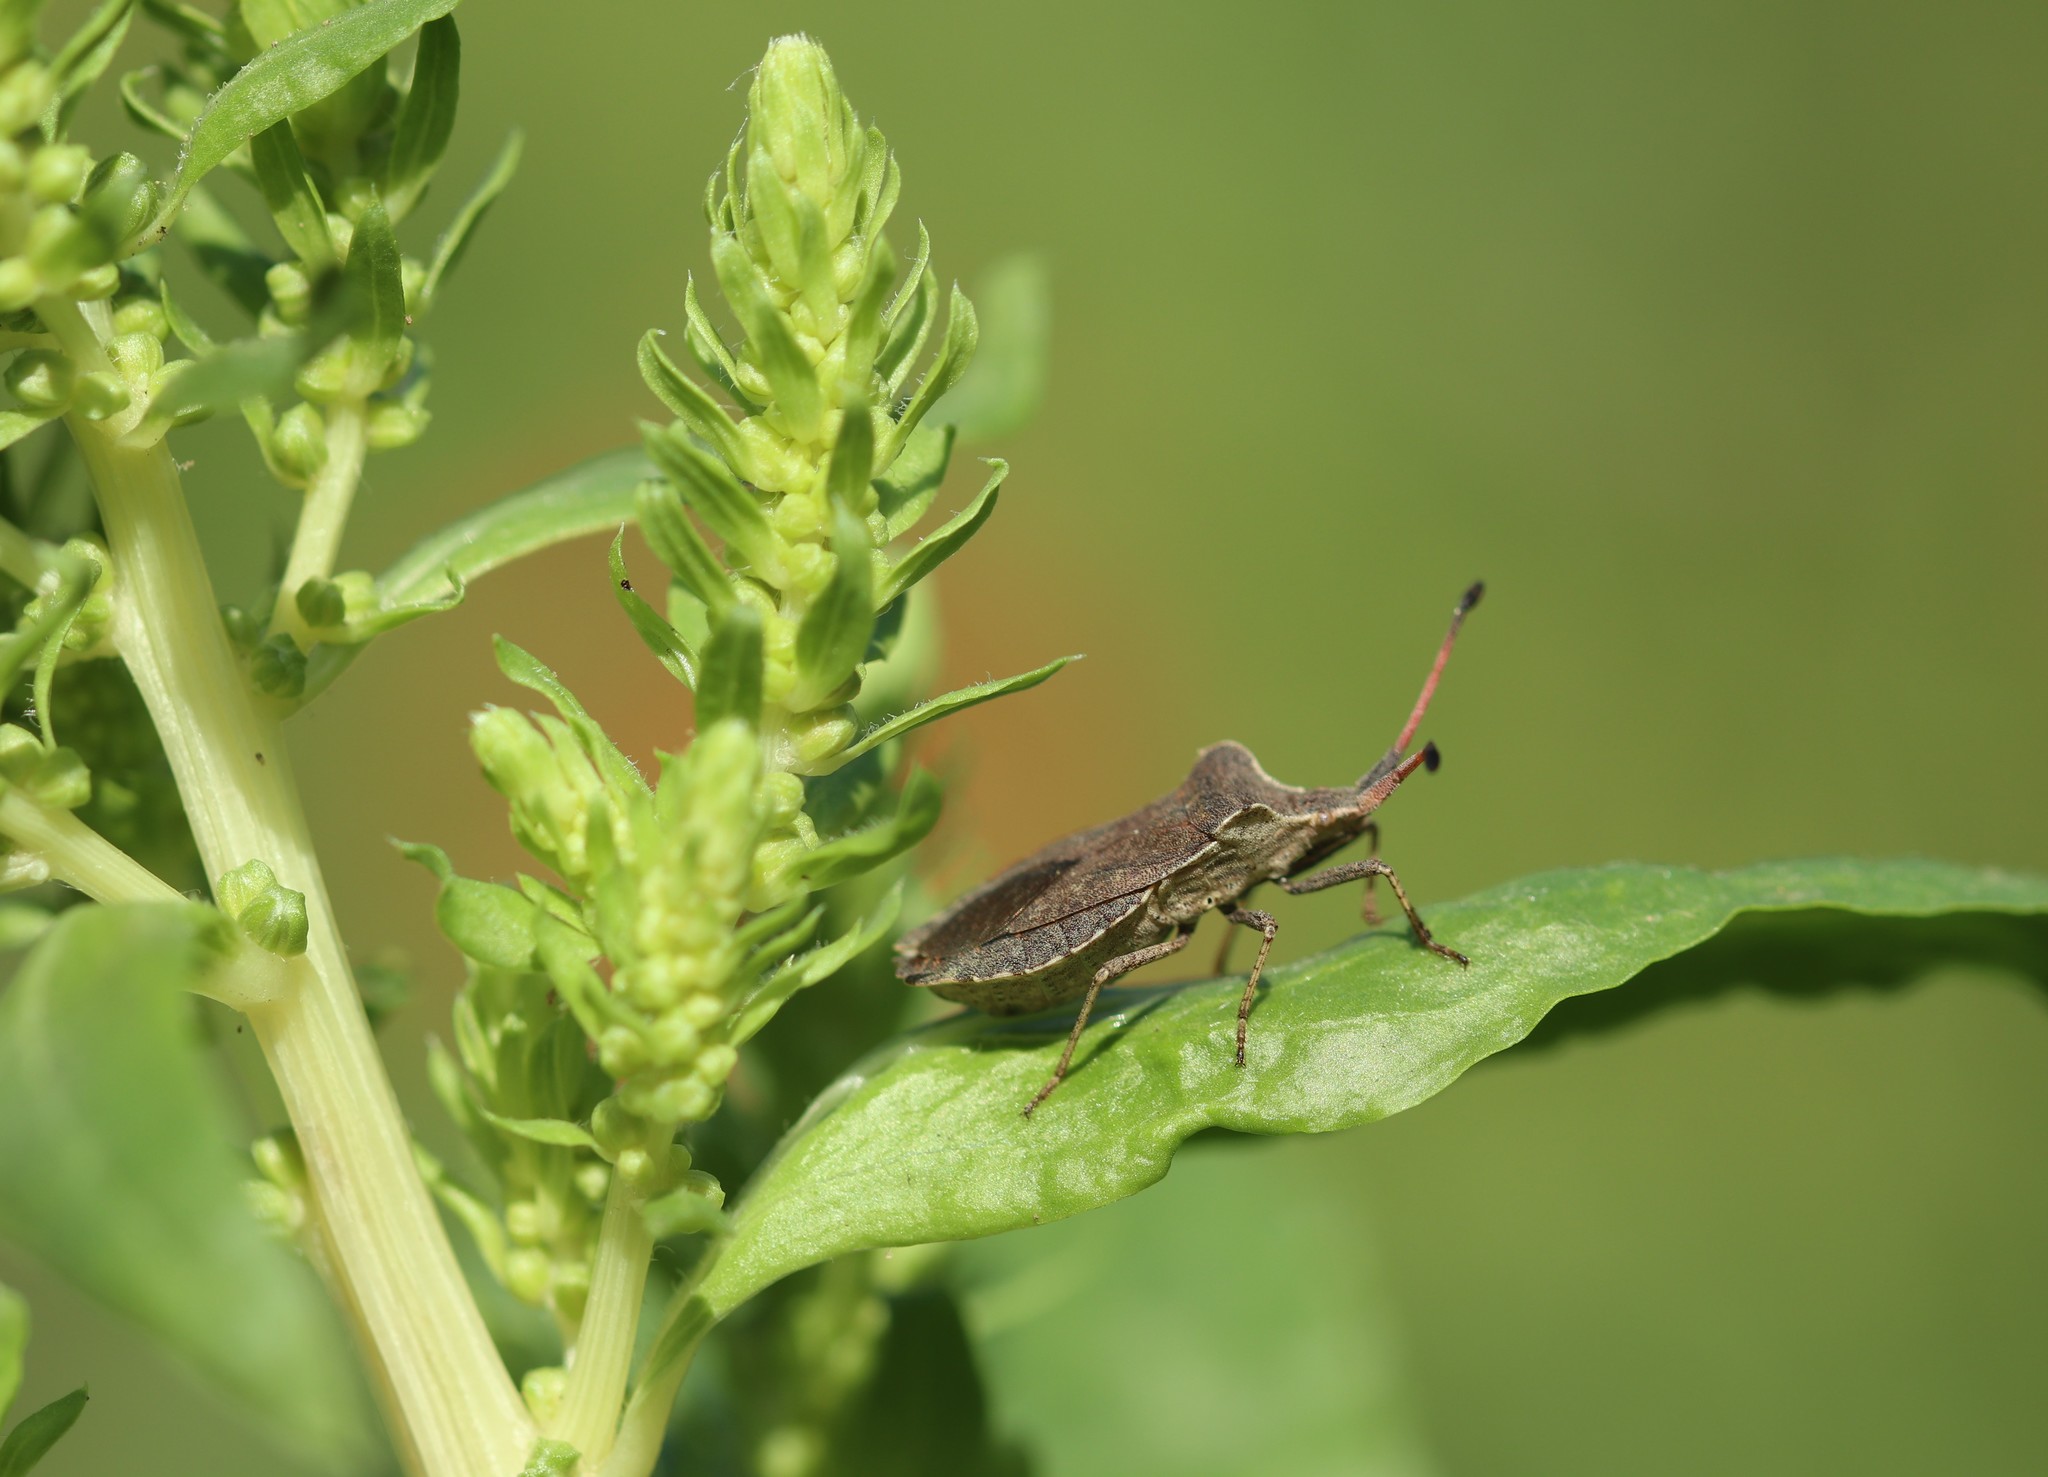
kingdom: Animalia
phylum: Arthropoda
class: Insecta
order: Hemiptera
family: Coreidae
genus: Enoplops
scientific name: Enoplops scapha
